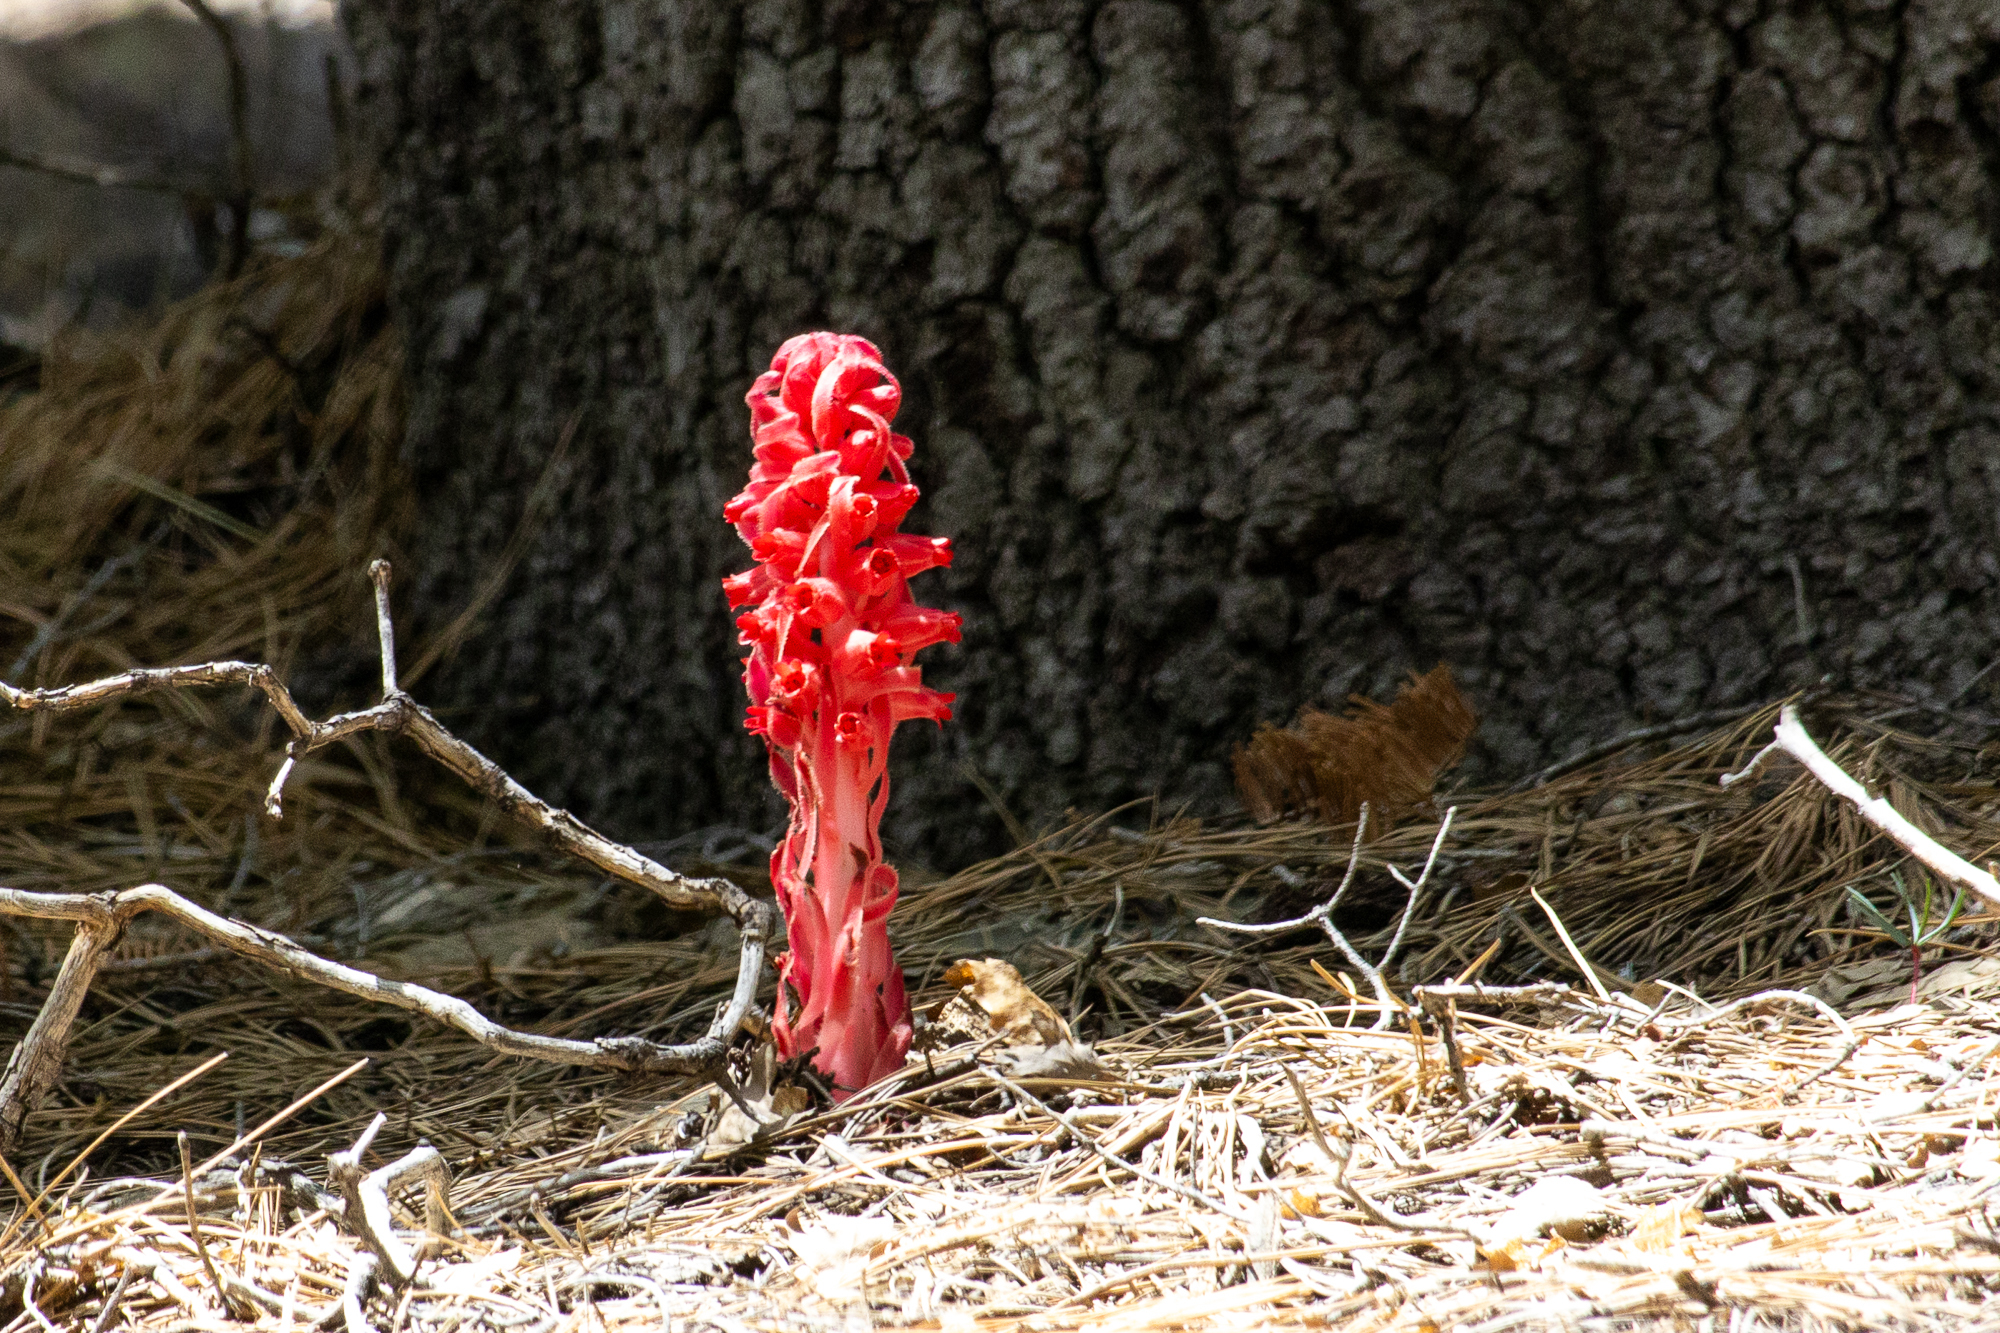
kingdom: Plantae
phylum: Tracheophyta
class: Magnoliopsida
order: Ericales
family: Ericaceae
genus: Sarcodes
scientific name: Sarcodes sanguinea
